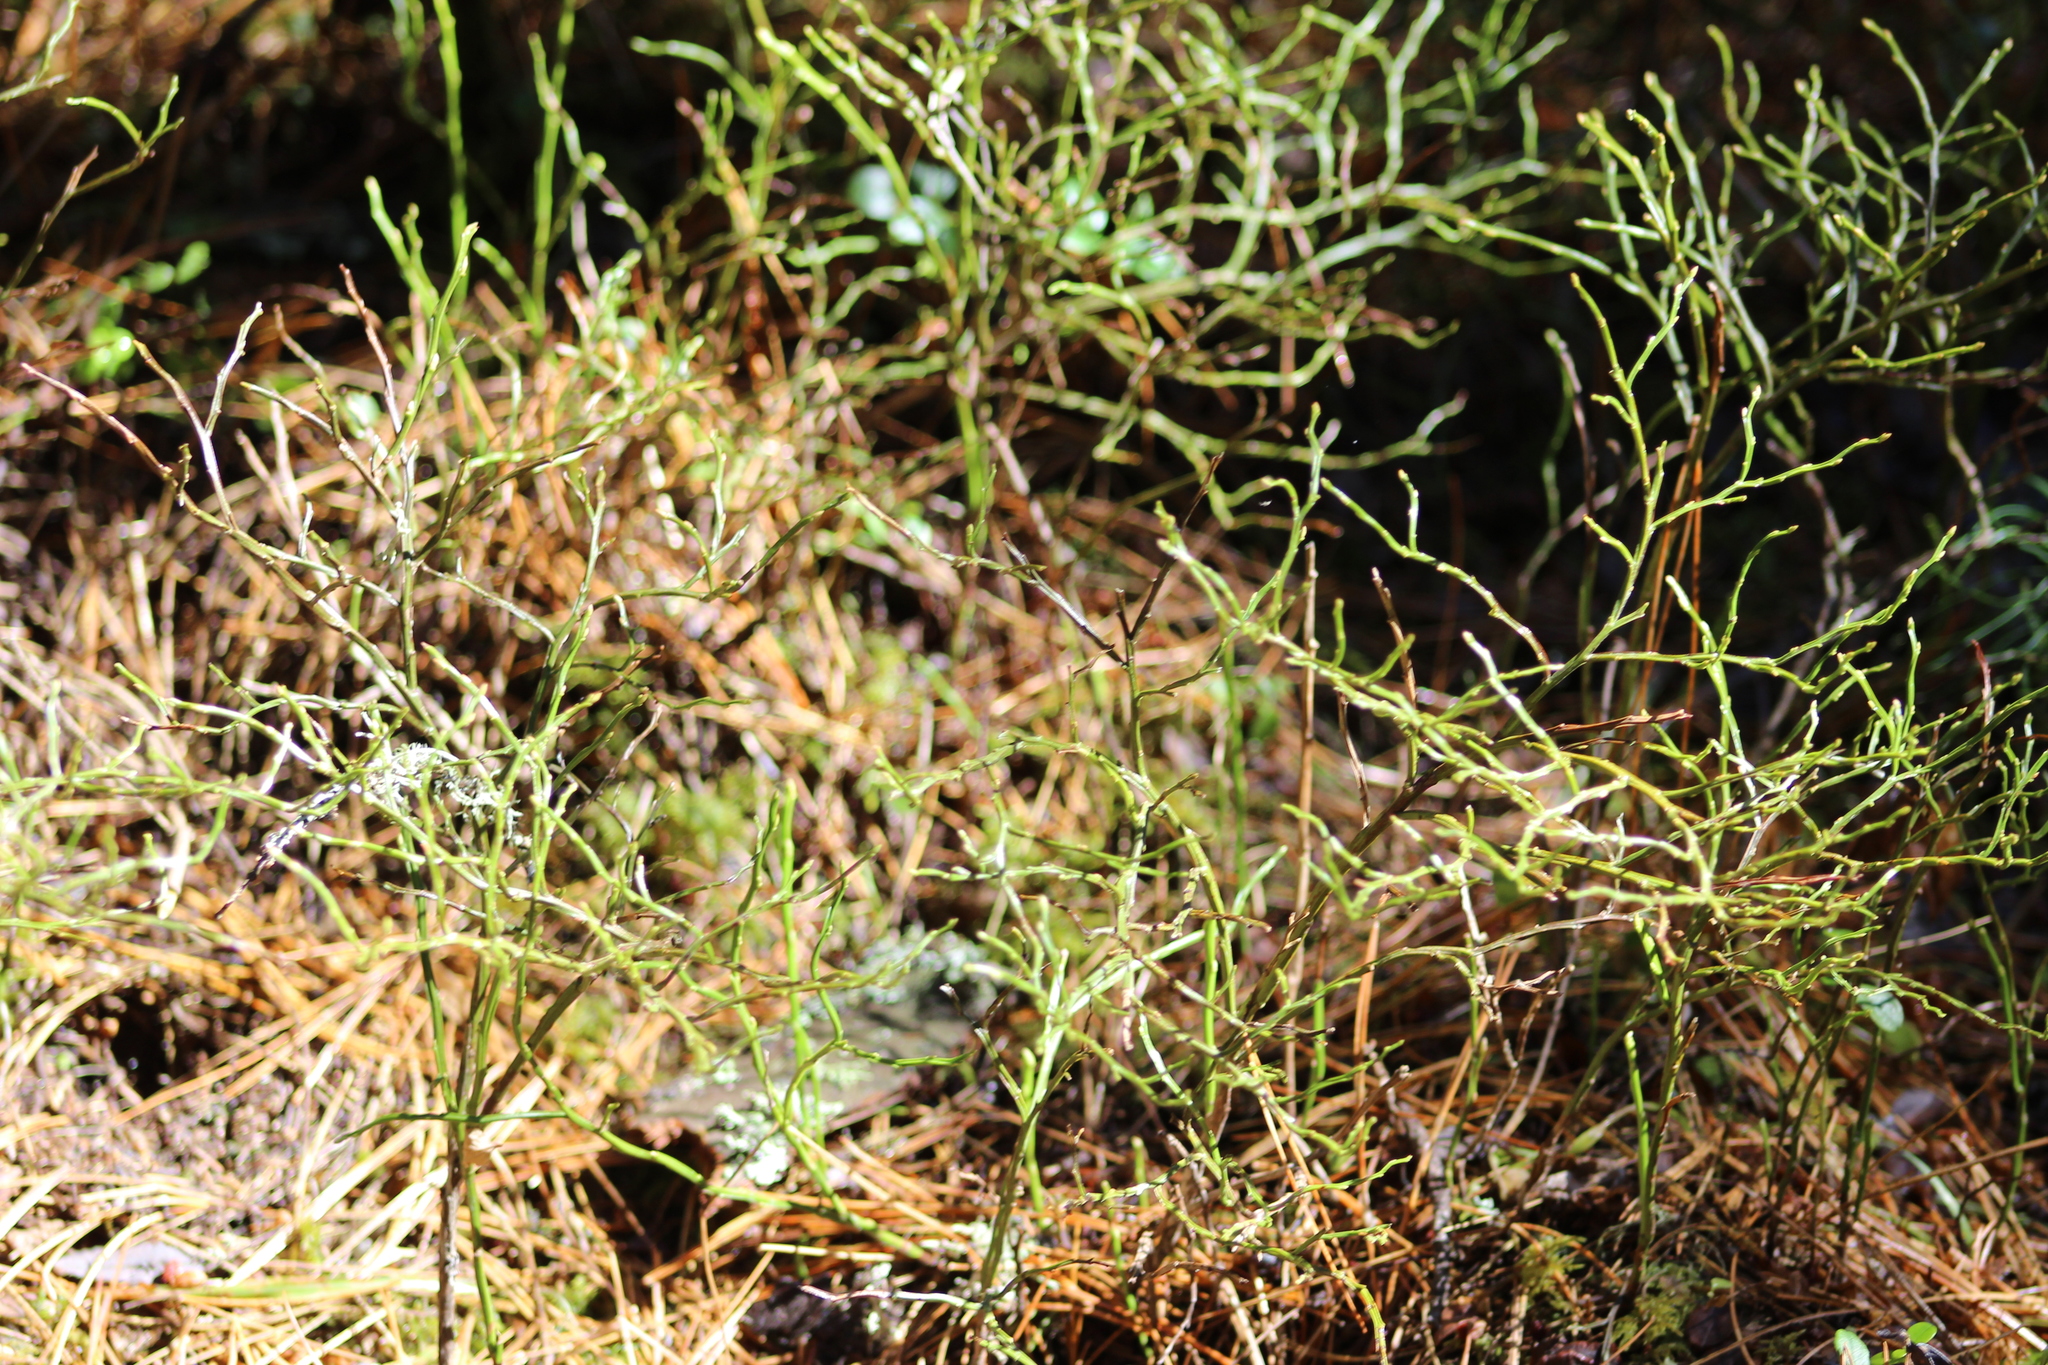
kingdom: Plantae
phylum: Tracheophyta
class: Magnoliopsida
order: Ericales
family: Ericaceae
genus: Vaccinium
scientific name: Vaccinium myrtillus
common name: Bilberry
